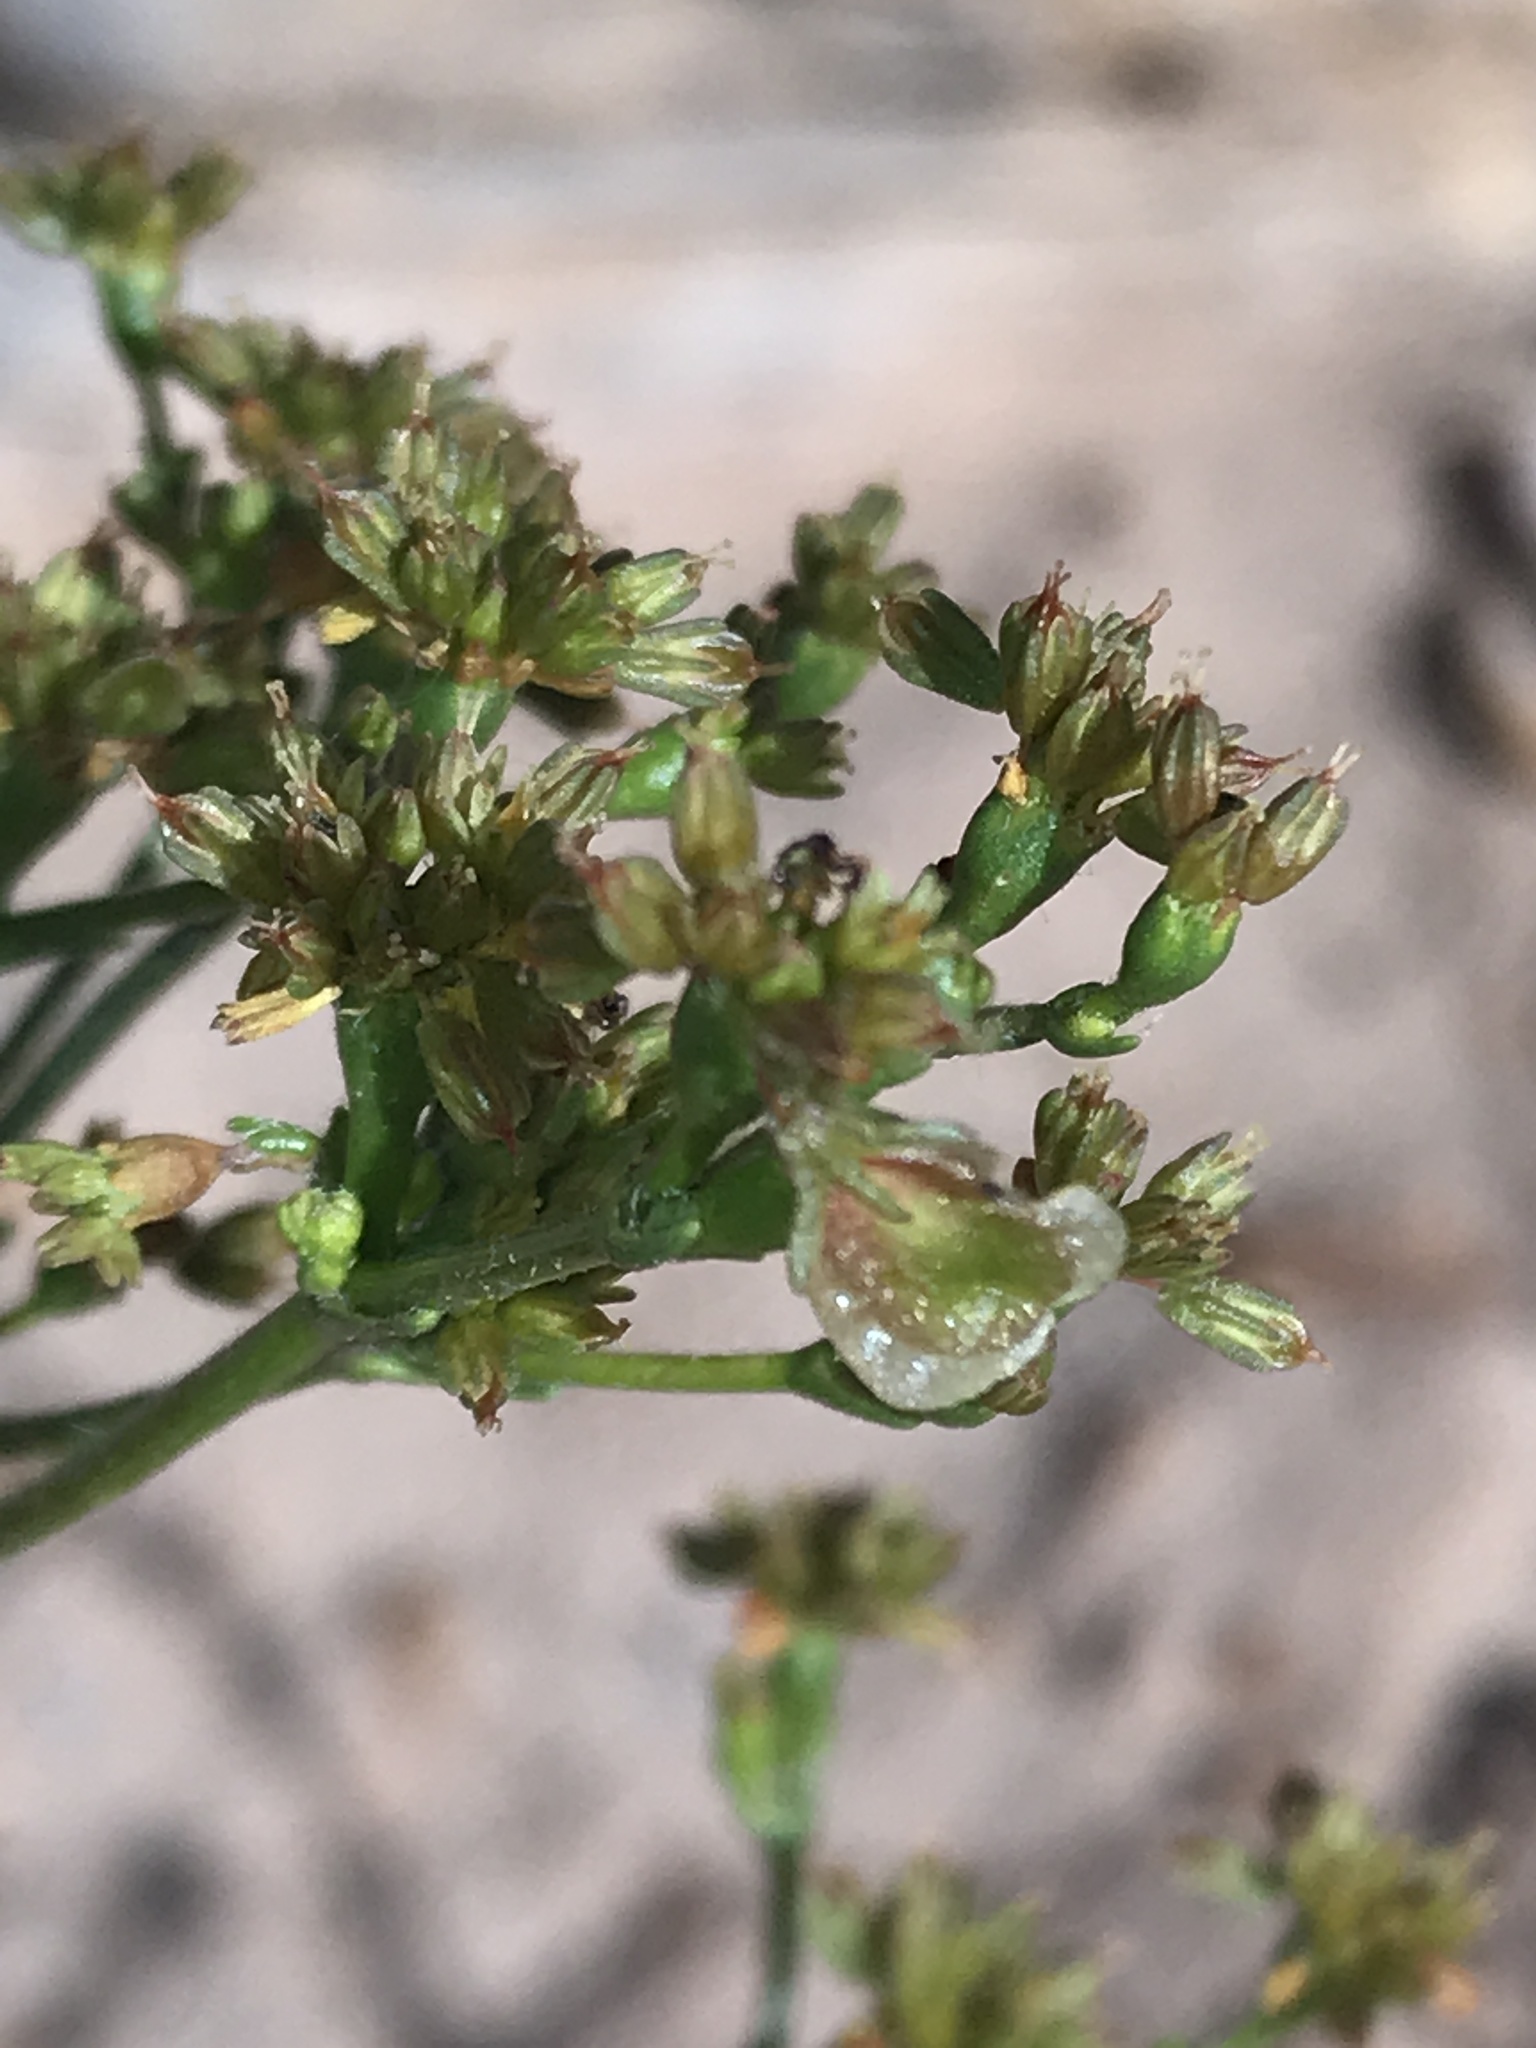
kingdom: Plantae
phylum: Tracheophyta
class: Magnoliopsida
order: Caryophyllales
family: Polygonaceae
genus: Eriogonum
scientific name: Eriogonum alatum
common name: Winged eriogonum
